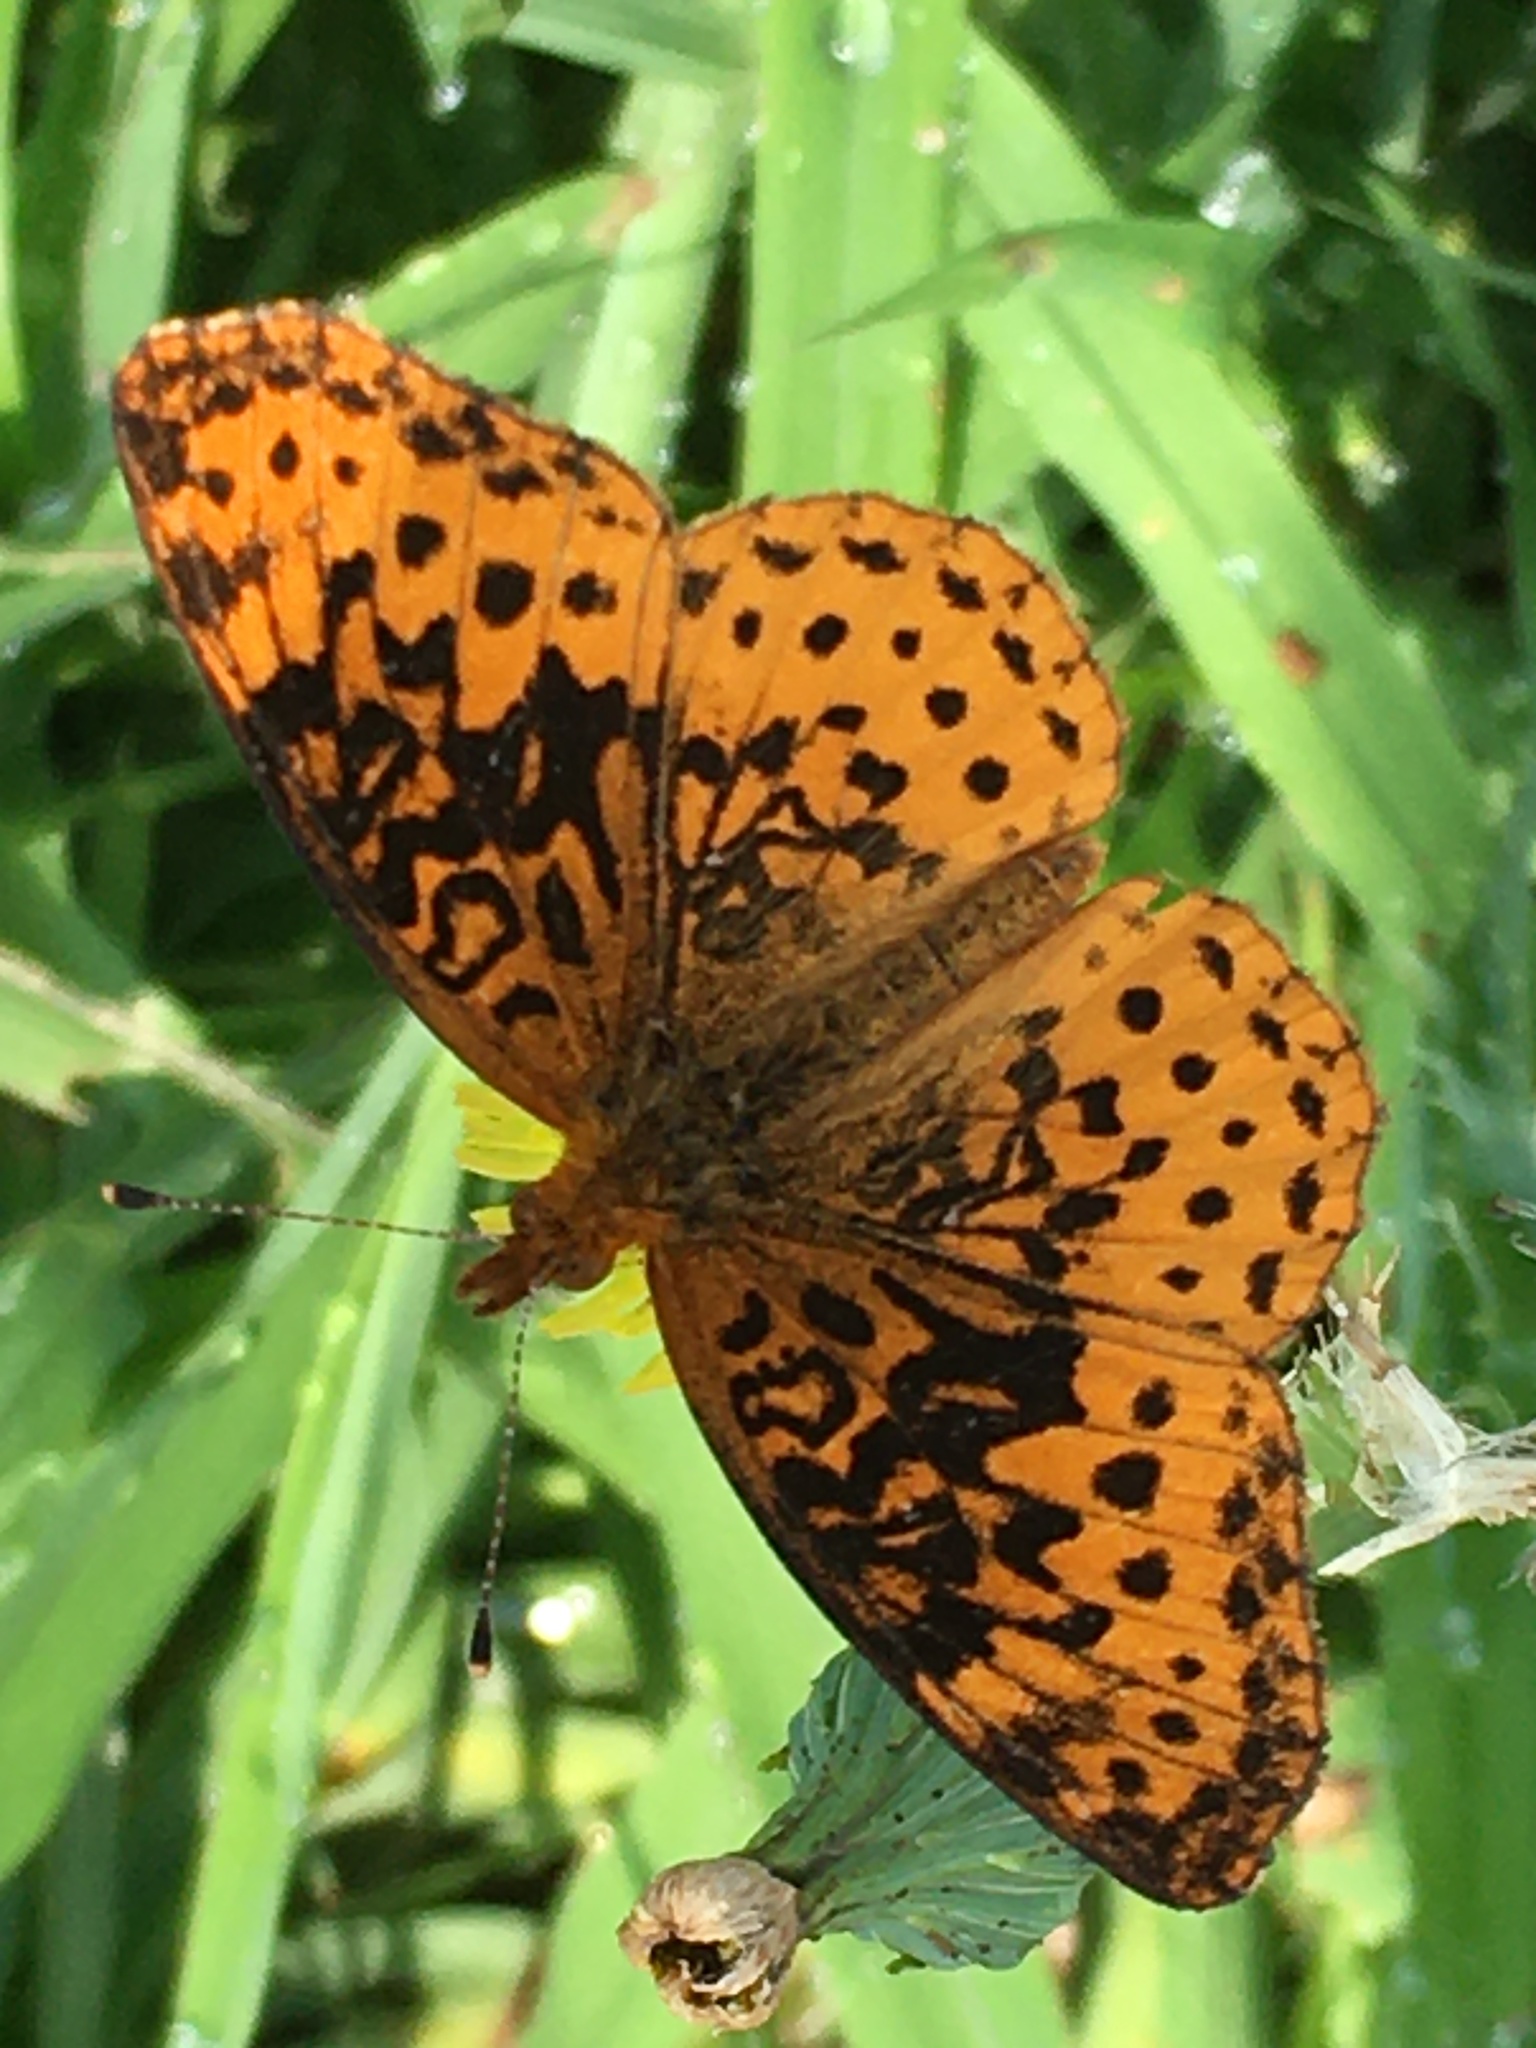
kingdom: Animalia
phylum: Arthropoda
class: Insecta
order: Lepidoptera
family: Nymphalidae
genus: Clossiana
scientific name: Clossiana toddi
